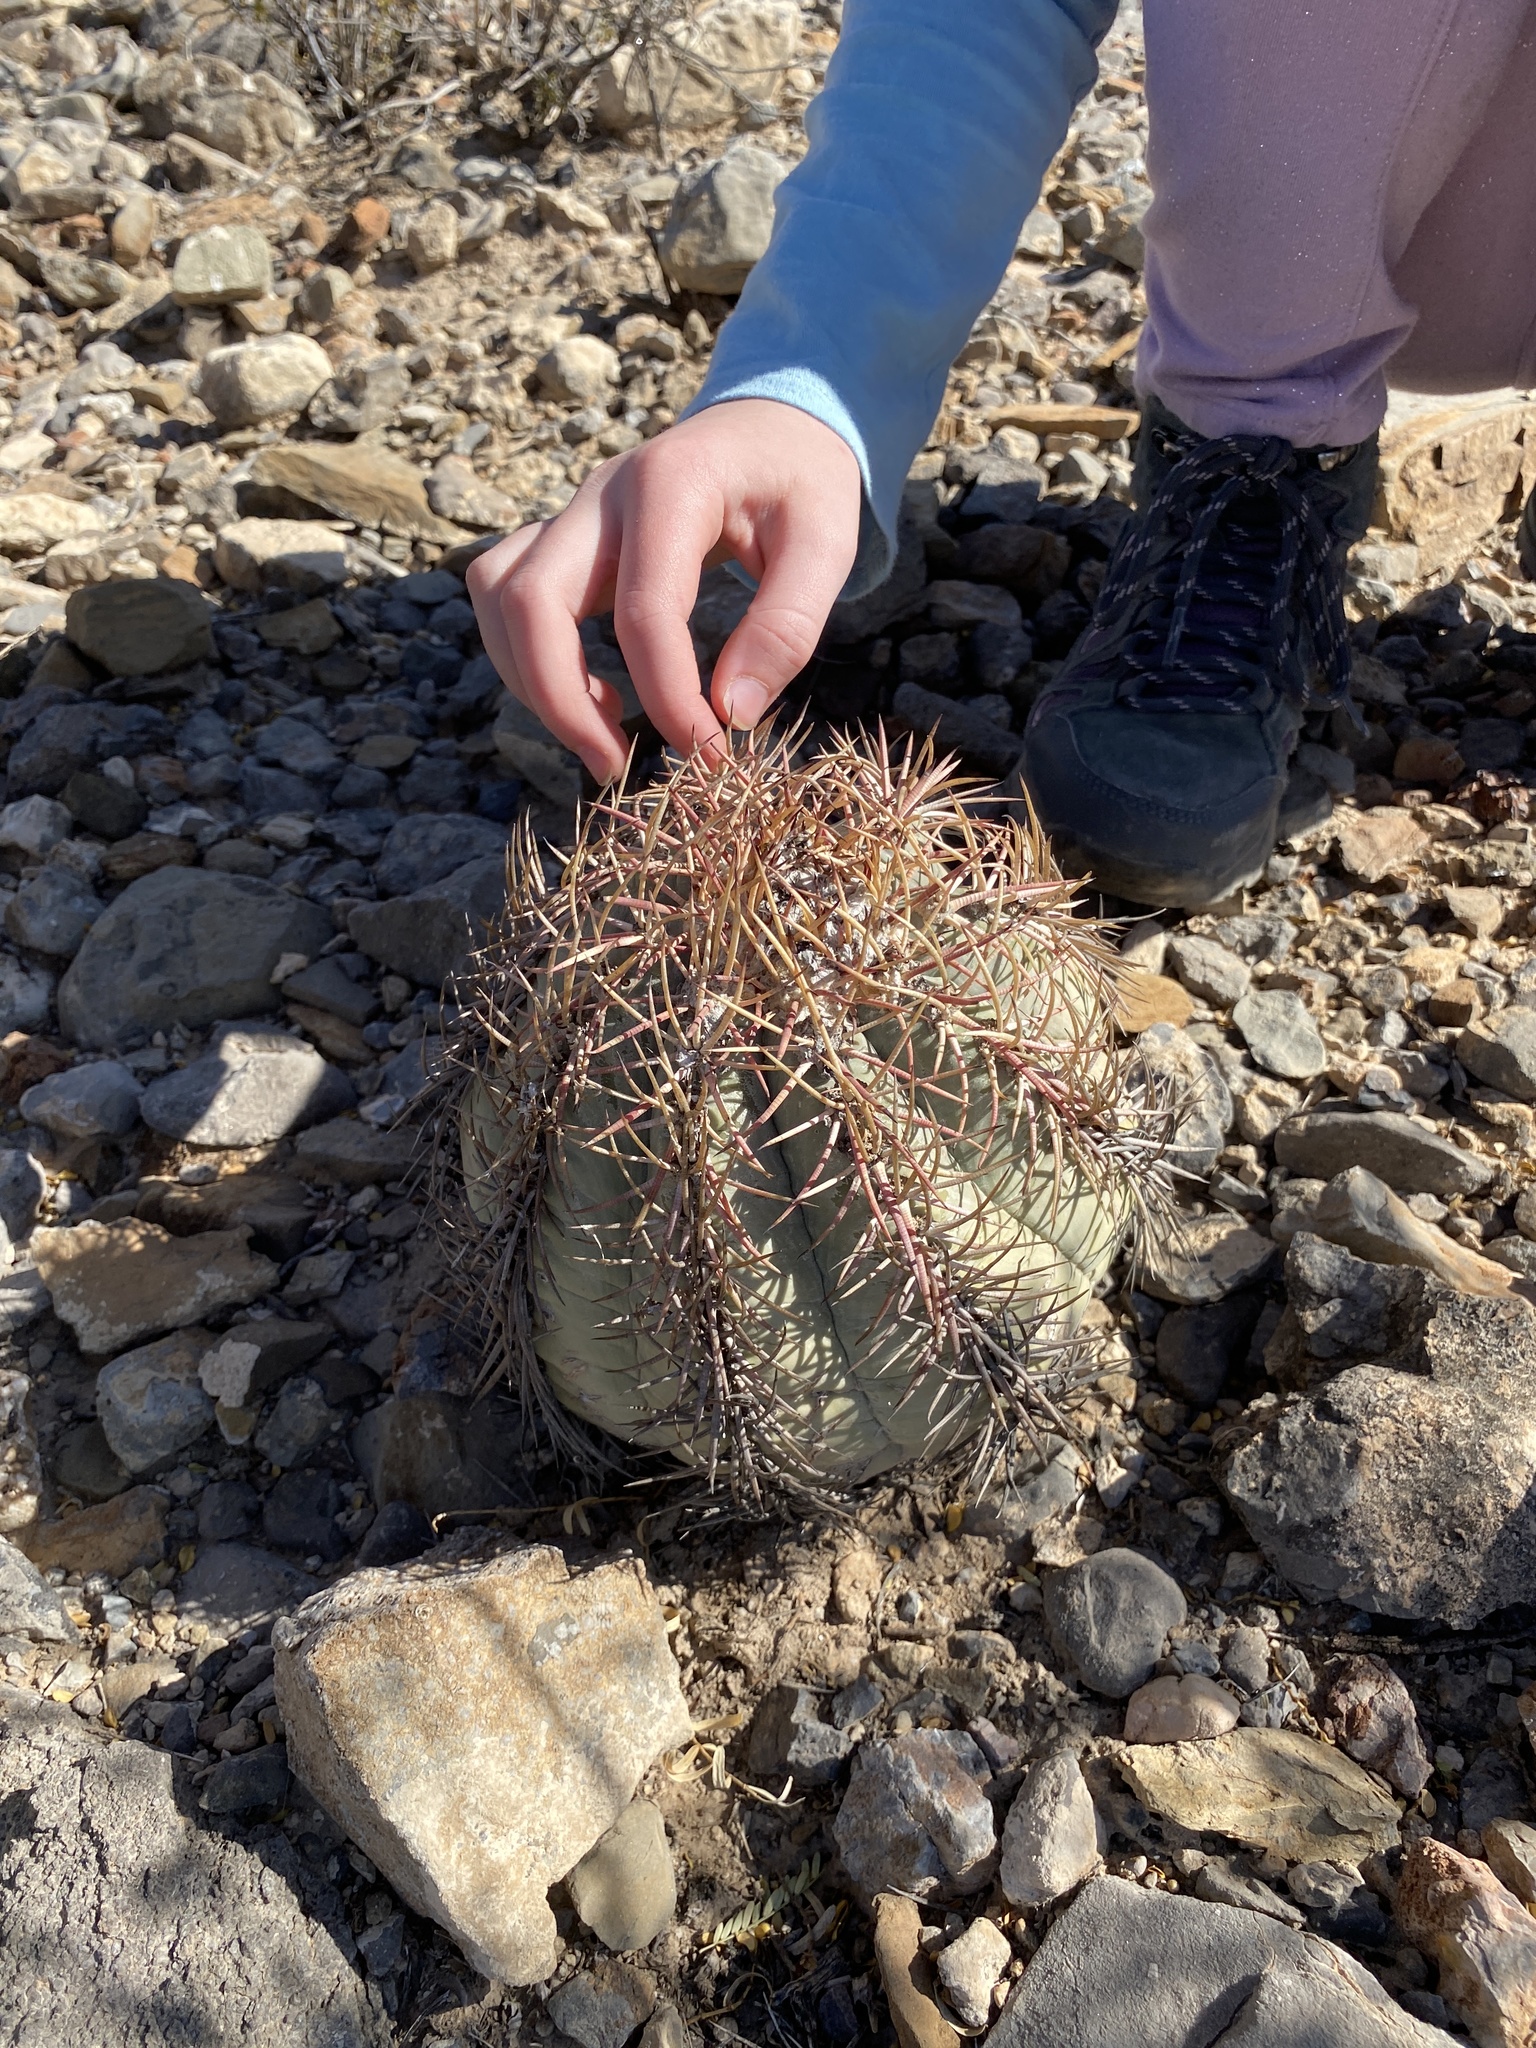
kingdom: Plantae
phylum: Tracheophyta
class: Magnoliopsida
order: Caryophyllales
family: Cactaceae
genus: Echinocactus
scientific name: Echinocactus horizonthalonius
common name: Devilshead
